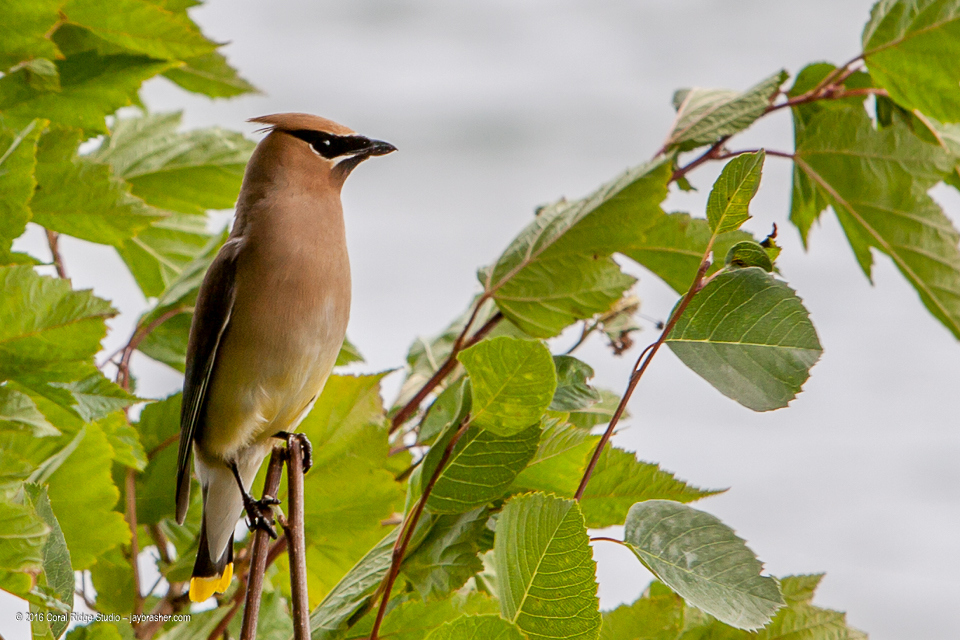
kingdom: Animalia
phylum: Chordata
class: Aves
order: Passeriformes
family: Bombycillidae
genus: Bombycilla
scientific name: Bombycilla cedrorum
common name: Cedar waxwing
